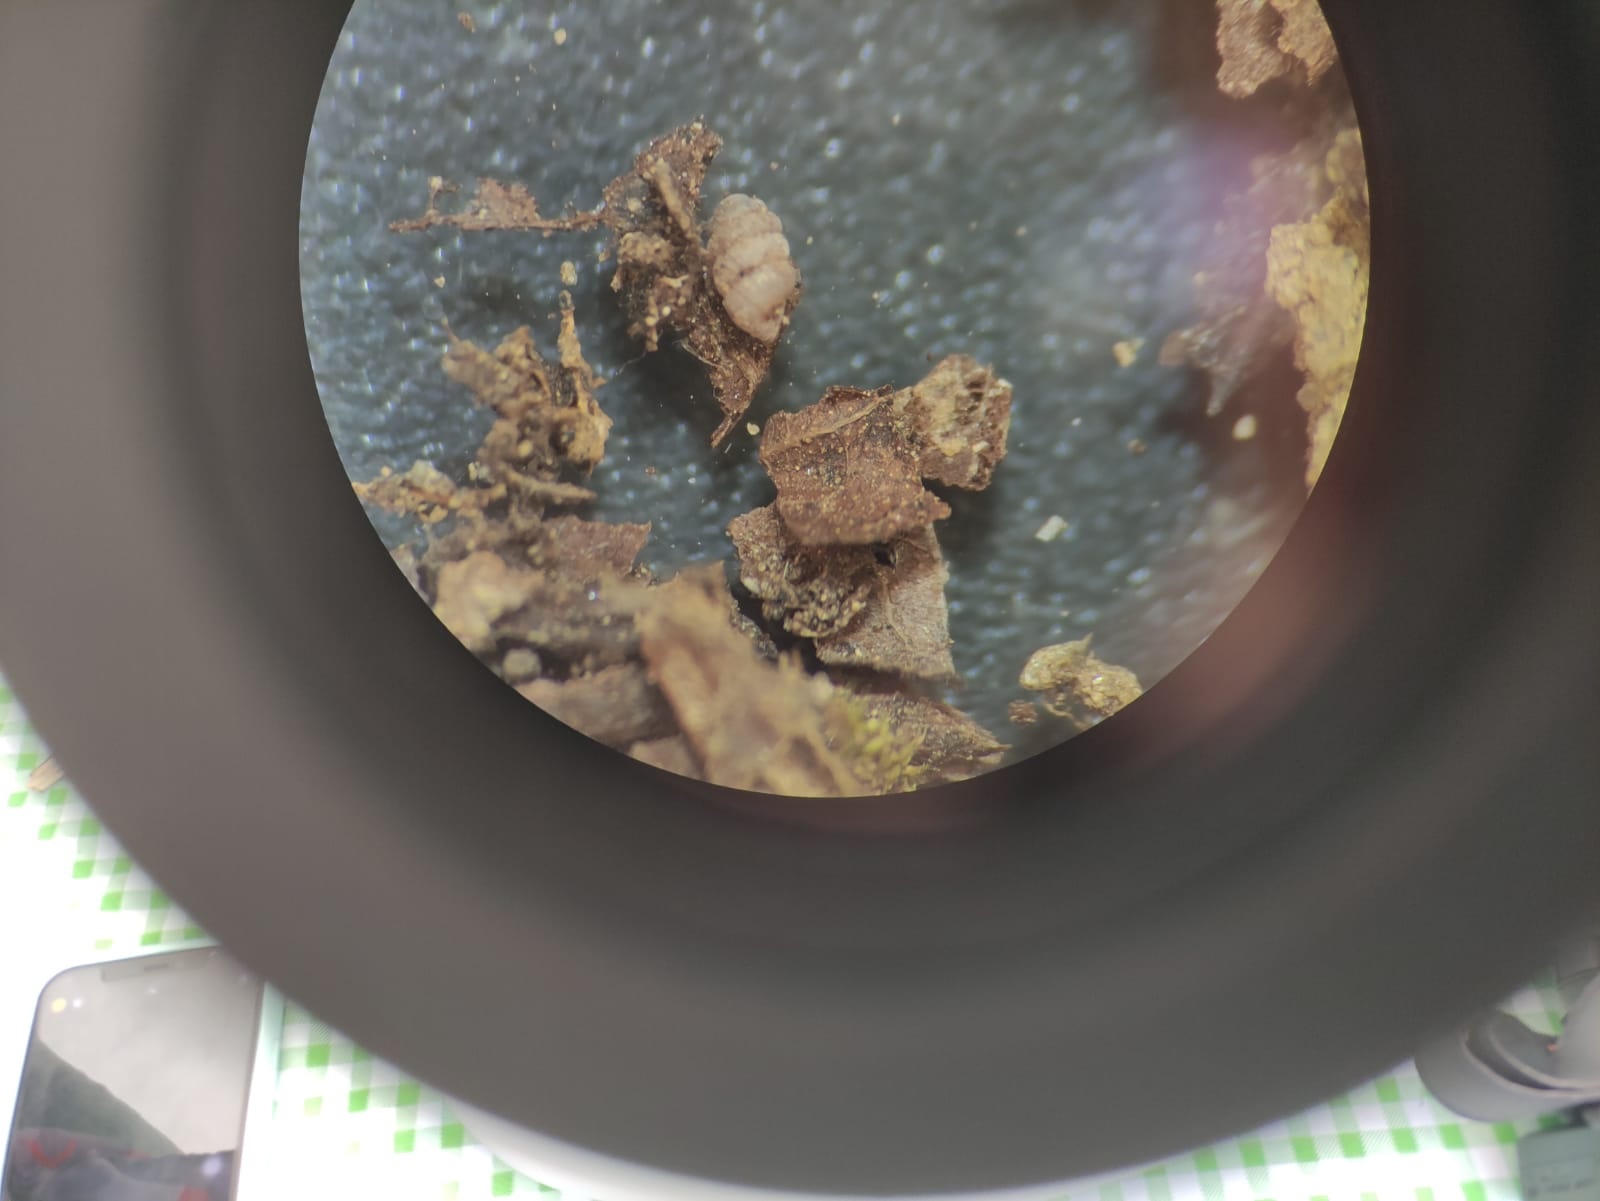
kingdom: Animalia
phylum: Mollusca
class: Gastropoda
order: Stylommatophora
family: Truncatellinidae
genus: Truncatellina
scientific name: Truncatellina callicratis
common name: Southern whorl snail
